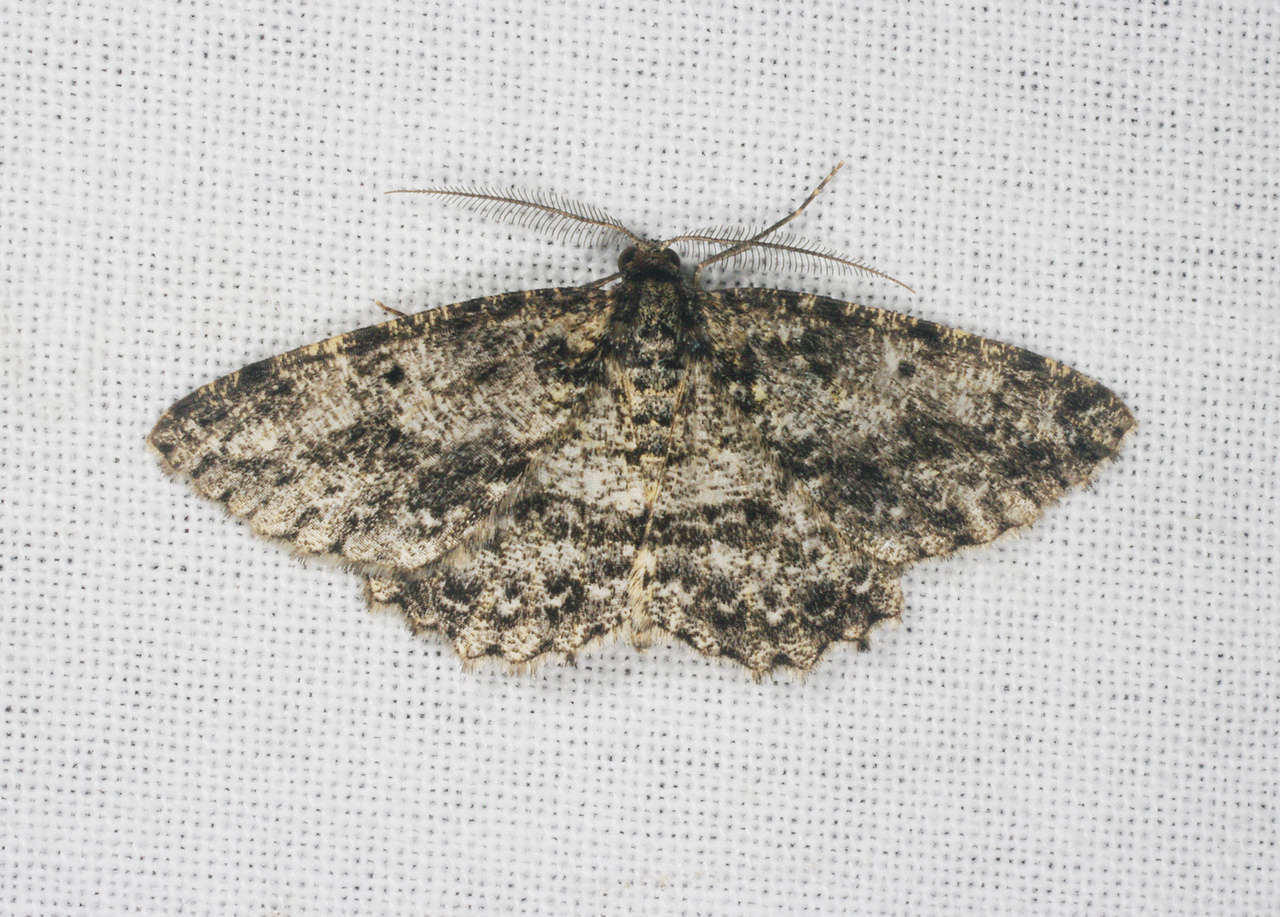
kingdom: Animalia
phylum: Arthropoda
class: Insecta
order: Lepidoptera
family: Geometridae
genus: Thallogama
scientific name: Thallogama nigraria
